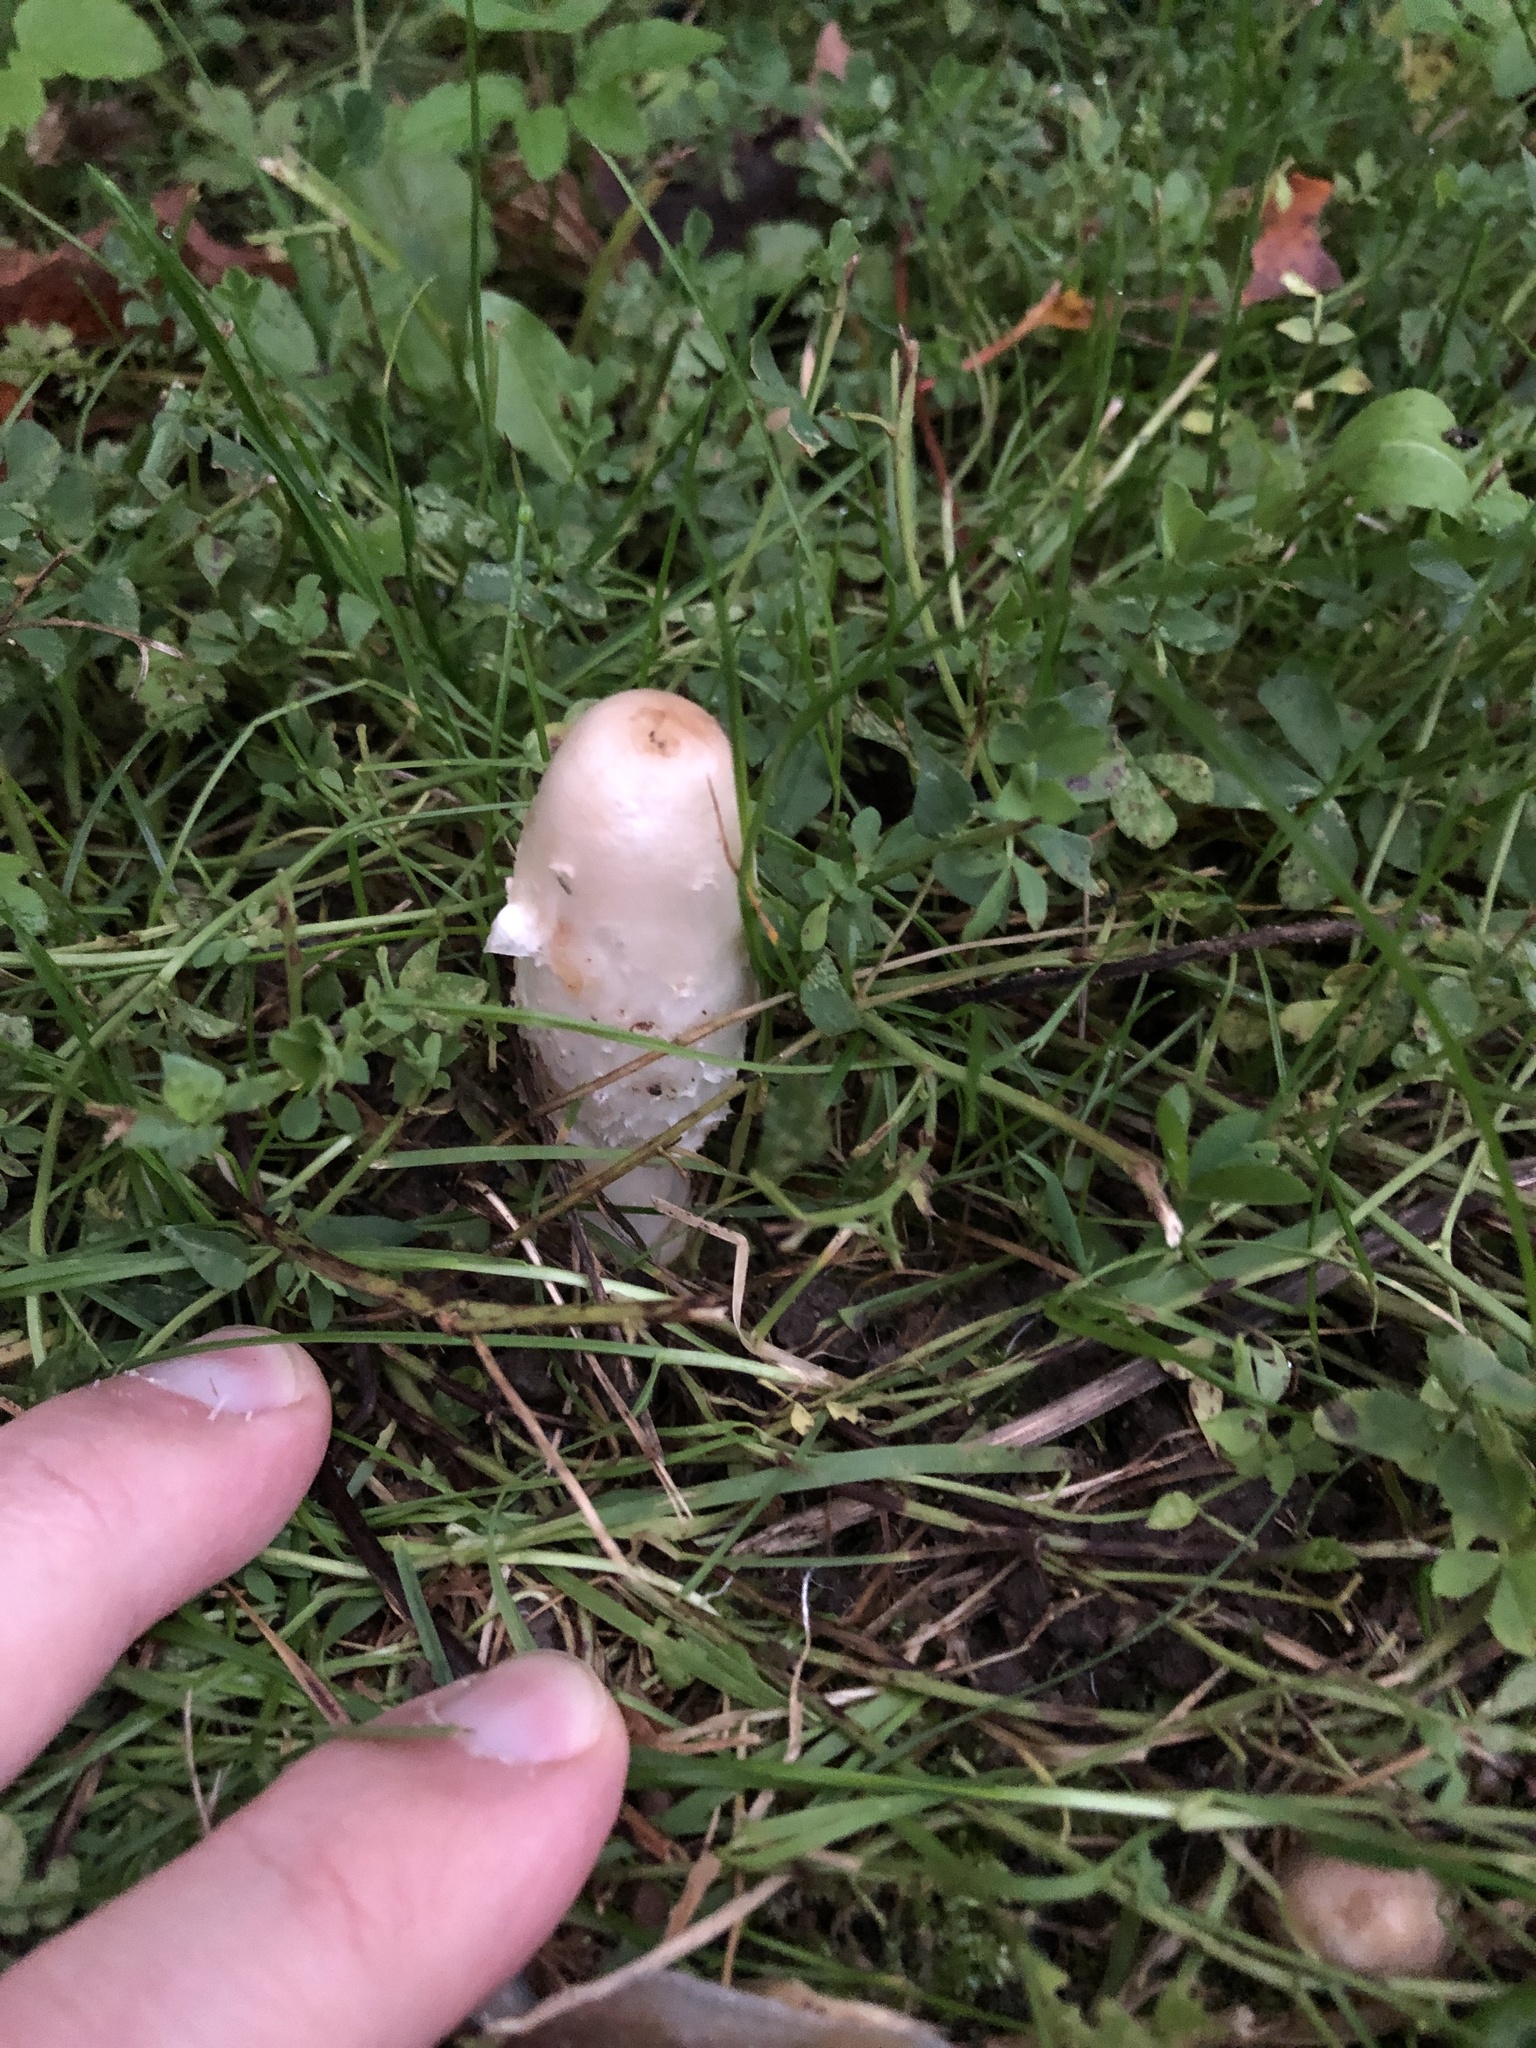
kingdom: Fungi
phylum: Basidiomycota
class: Agaricomycetes
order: Agaricales
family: Agaricaceae
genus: Coprinus
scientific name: Coprinus comatus
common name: Lawyer's wig
